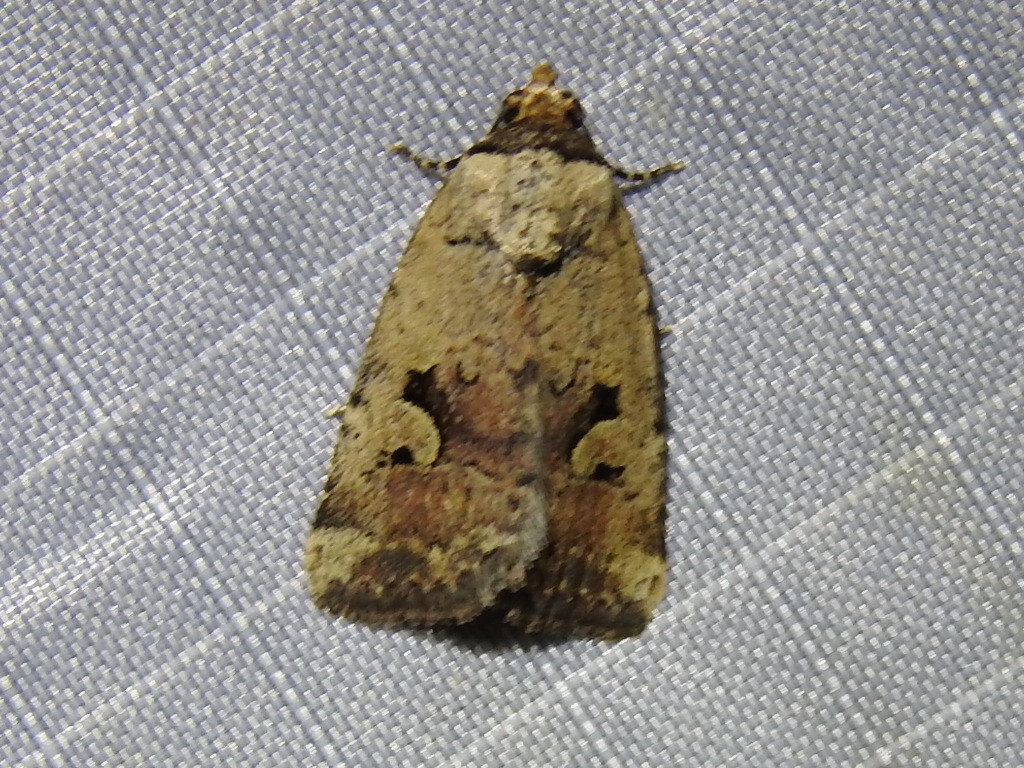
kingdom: Animalia
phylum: Arthropoda
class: Insecta
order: Lepidoptera
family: Noctuidae
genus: Elaphria
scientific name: Elaphria festivoides
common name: Festive midget
